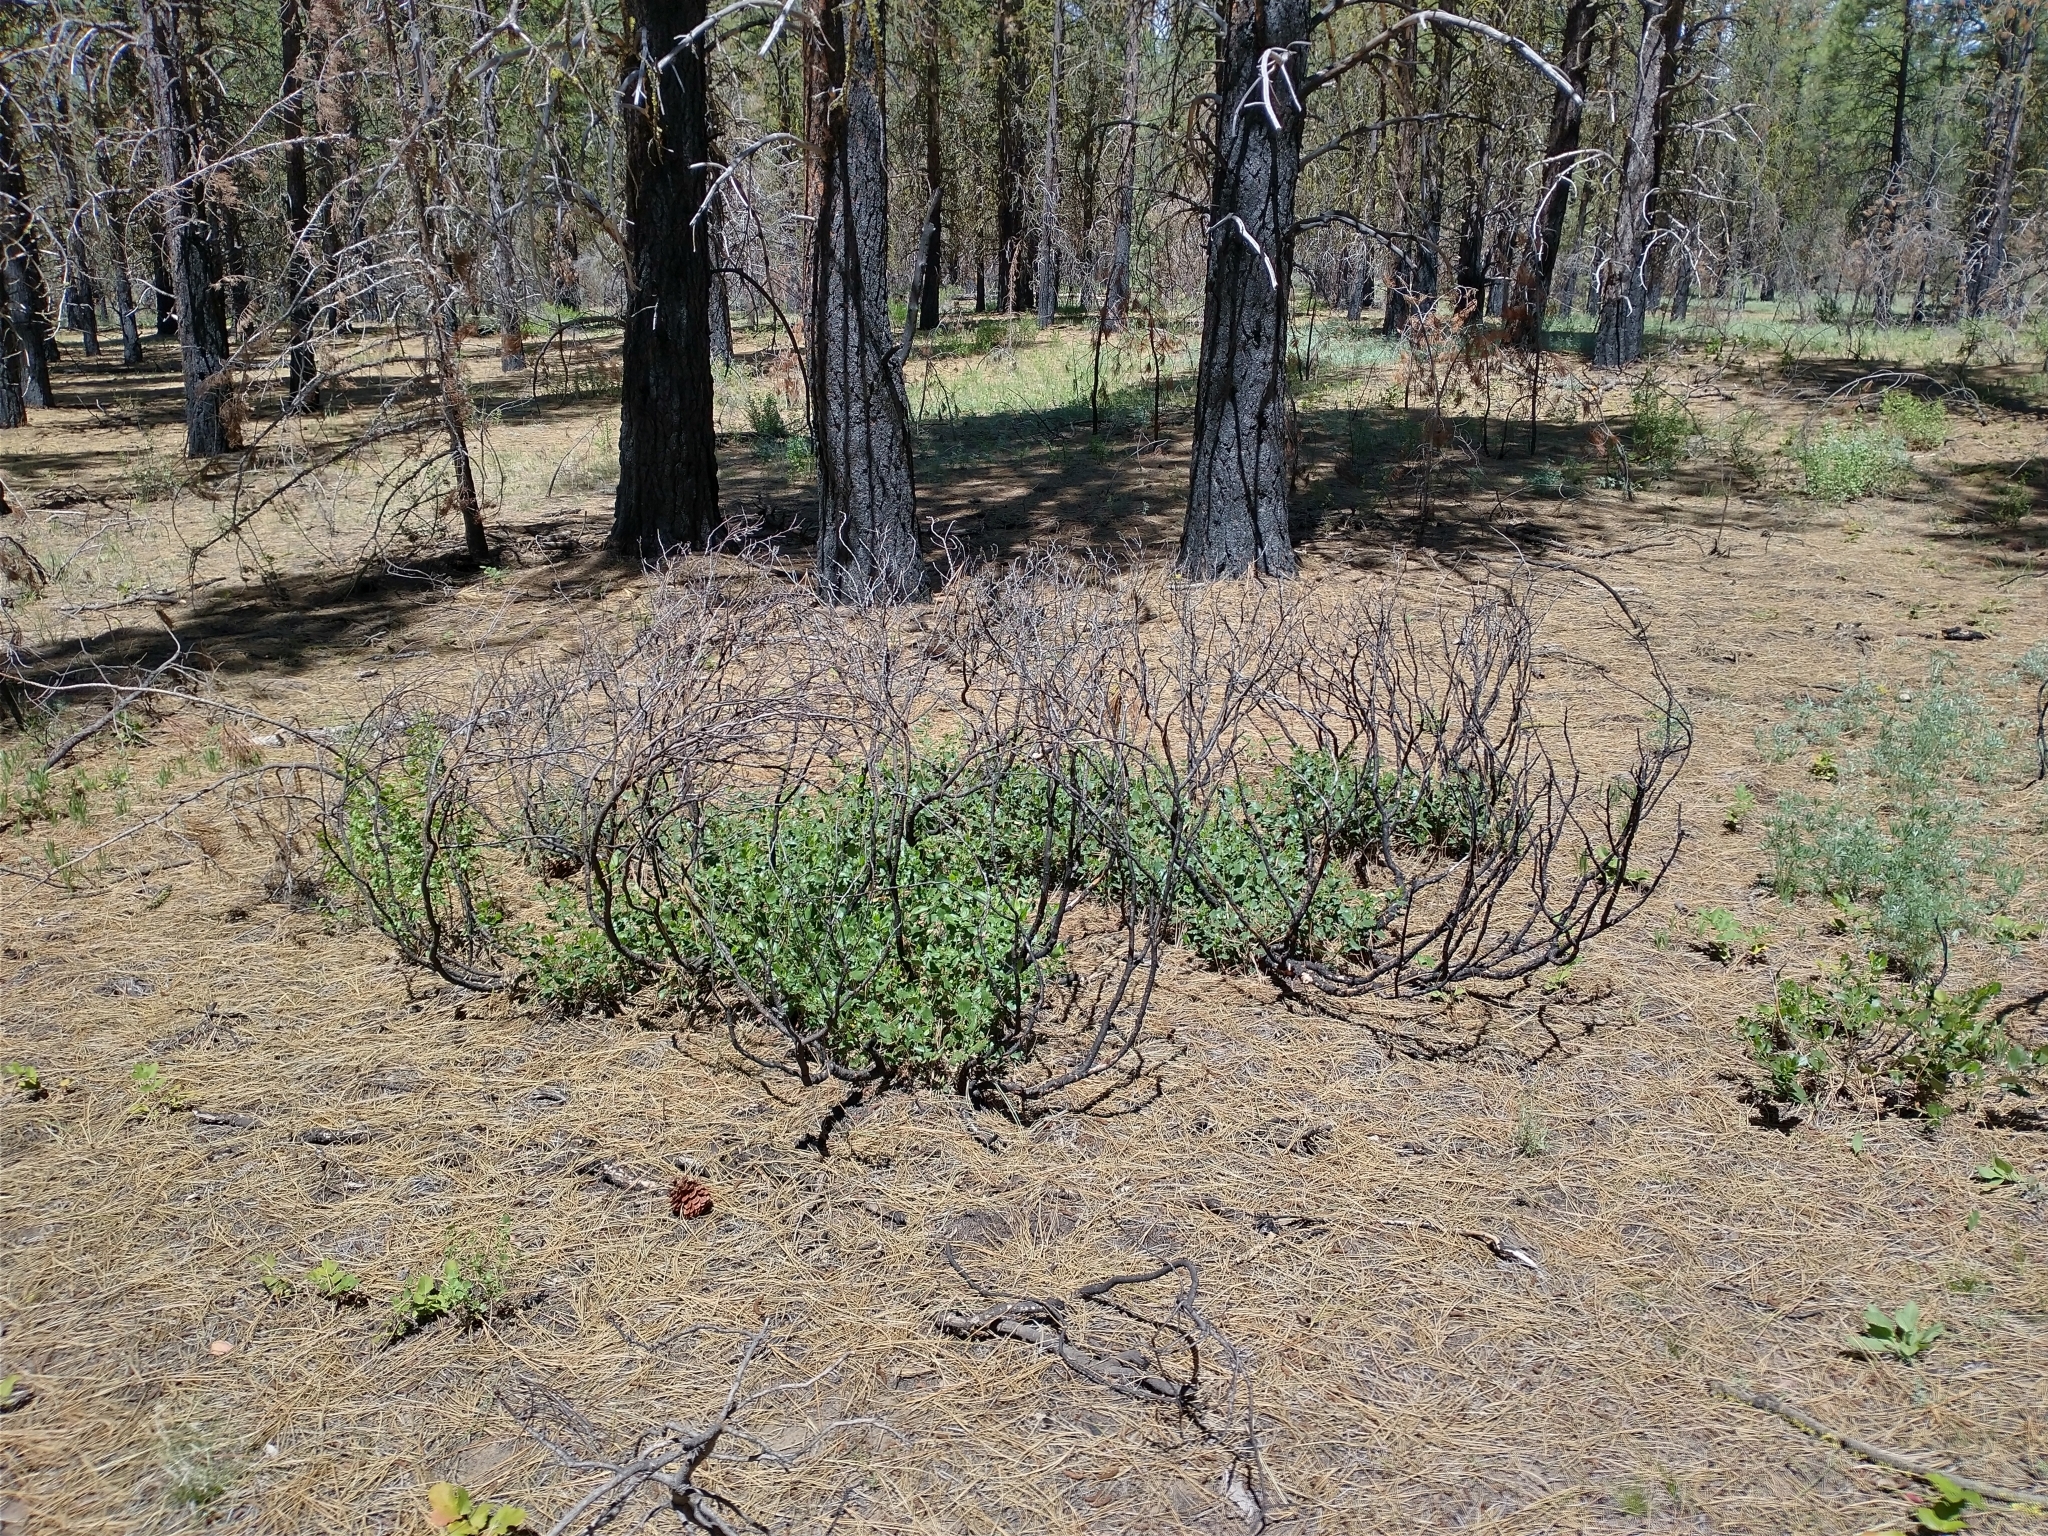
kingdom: Plantae
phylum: Tracheophyta
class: Magnoliopsida
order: Rosales
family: Rhamnaceae
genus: Ceanothus
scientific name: Ceanothus velutinus
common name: Snowbrush
